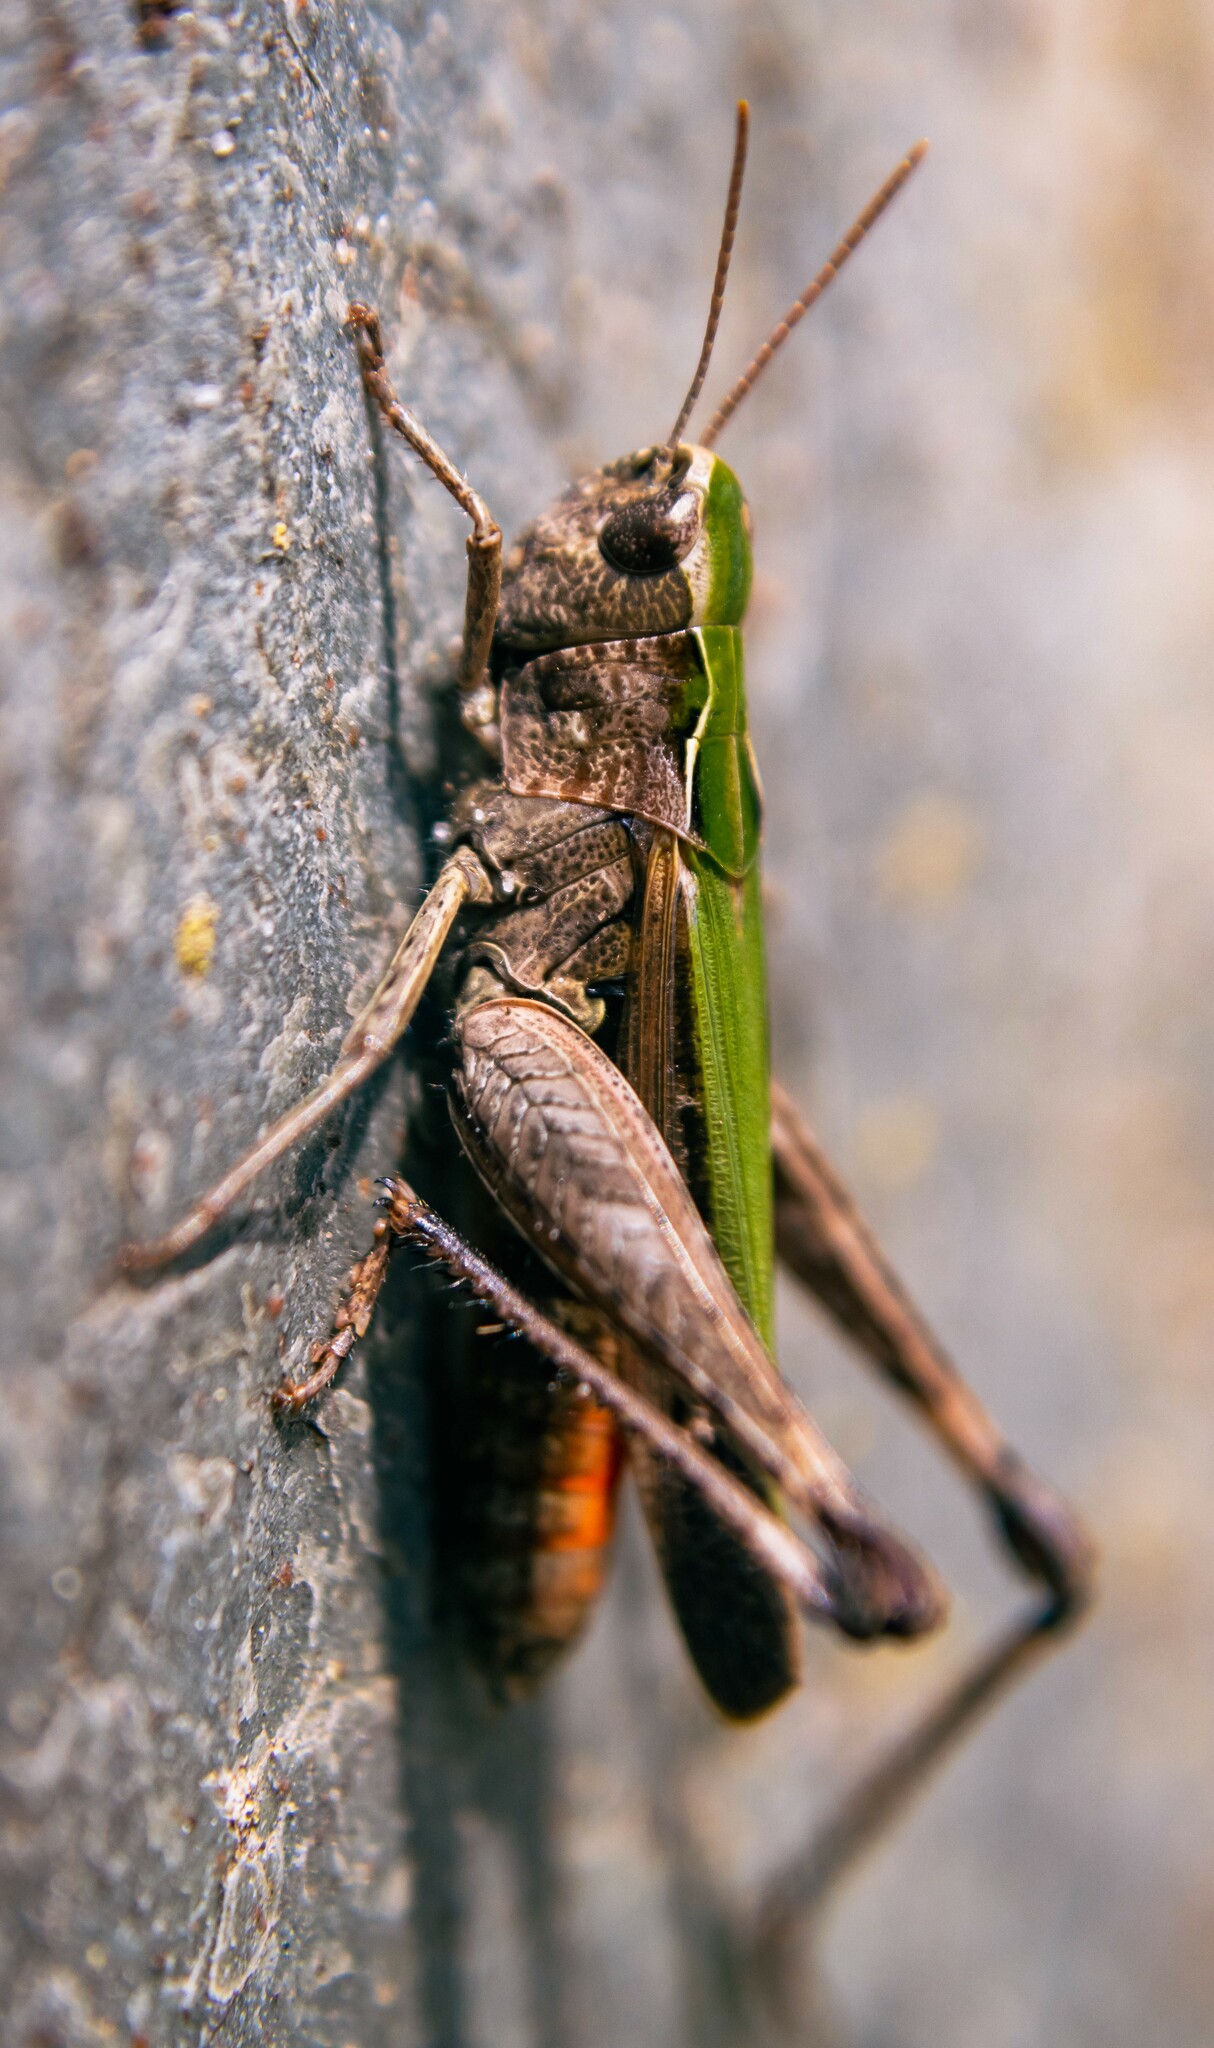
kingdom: Animalia
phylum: Arthropoda
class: Insecta
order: Orthoptera
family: Acrididae
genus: Omocestus
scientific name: Omocestus rufipes
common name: Woodland grasshopper
